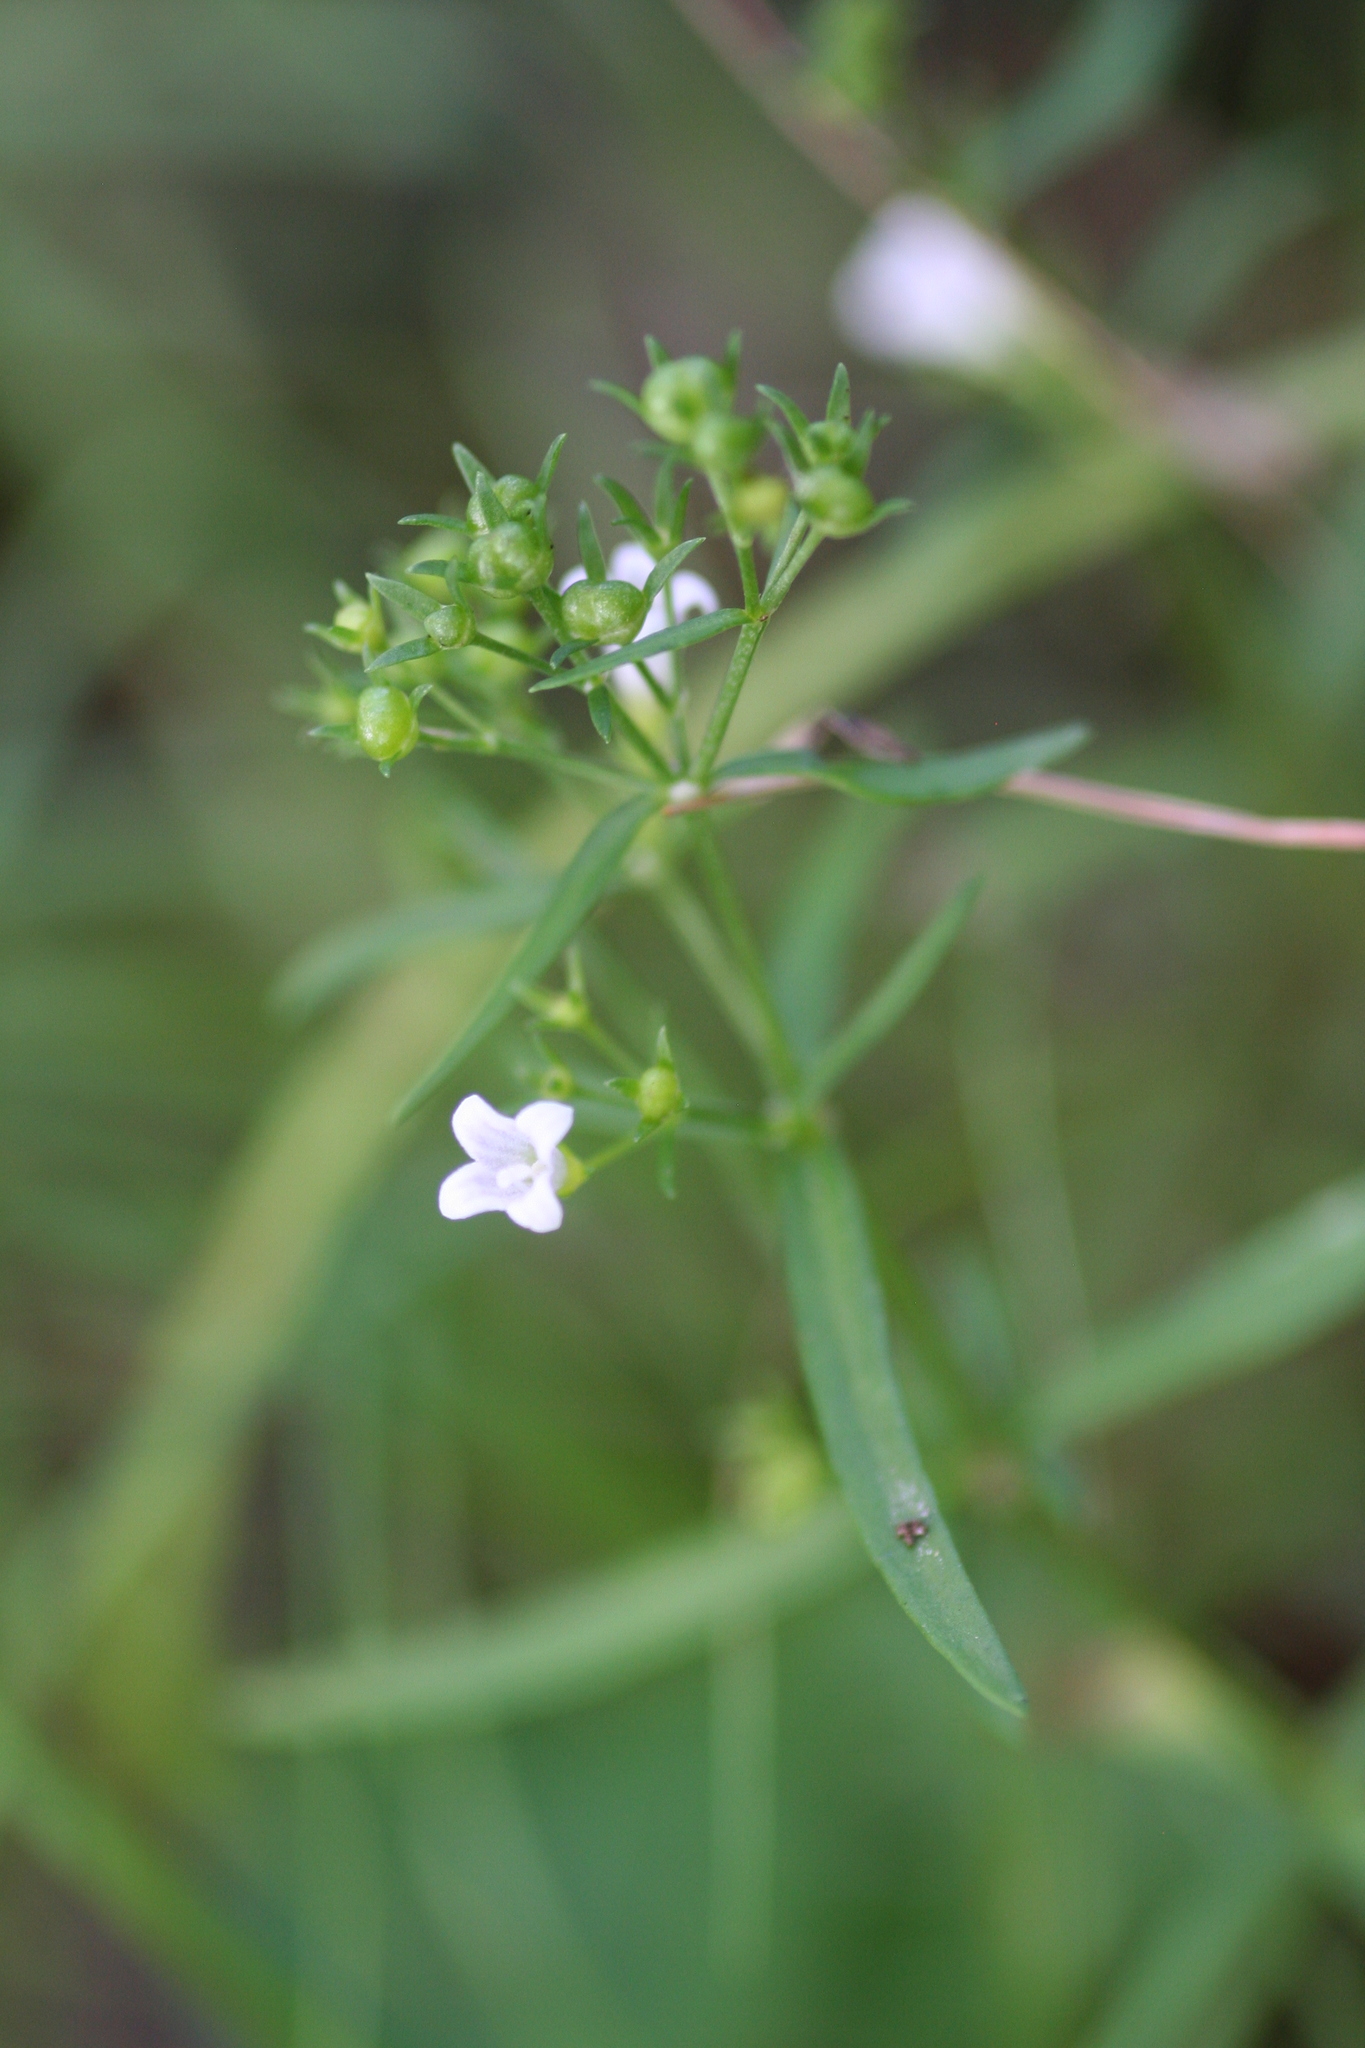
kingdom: Plantae
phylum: Tracheophyta
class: Magnoliopsida
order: Gentianales
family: Rubiaceae
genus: Houstonia
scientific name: Houstonia longifolia
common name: Long-leaved bluets
